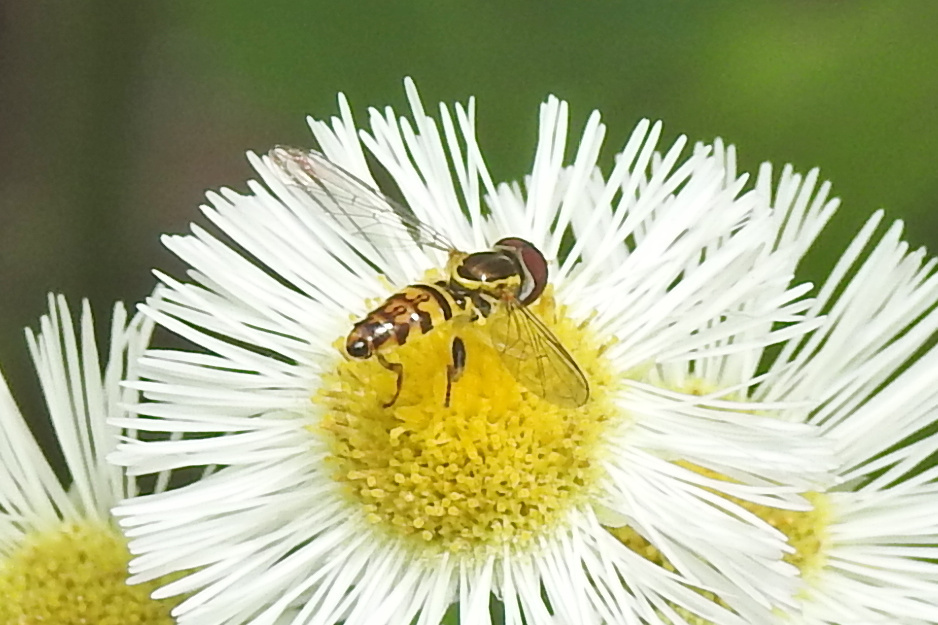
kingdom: Animalia
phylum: Arthropoda
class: Insecta
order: Diptera
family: Syrphidae
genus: Toxomerus
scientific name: Toxomerus geminatus
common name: Eastern calligrapher
